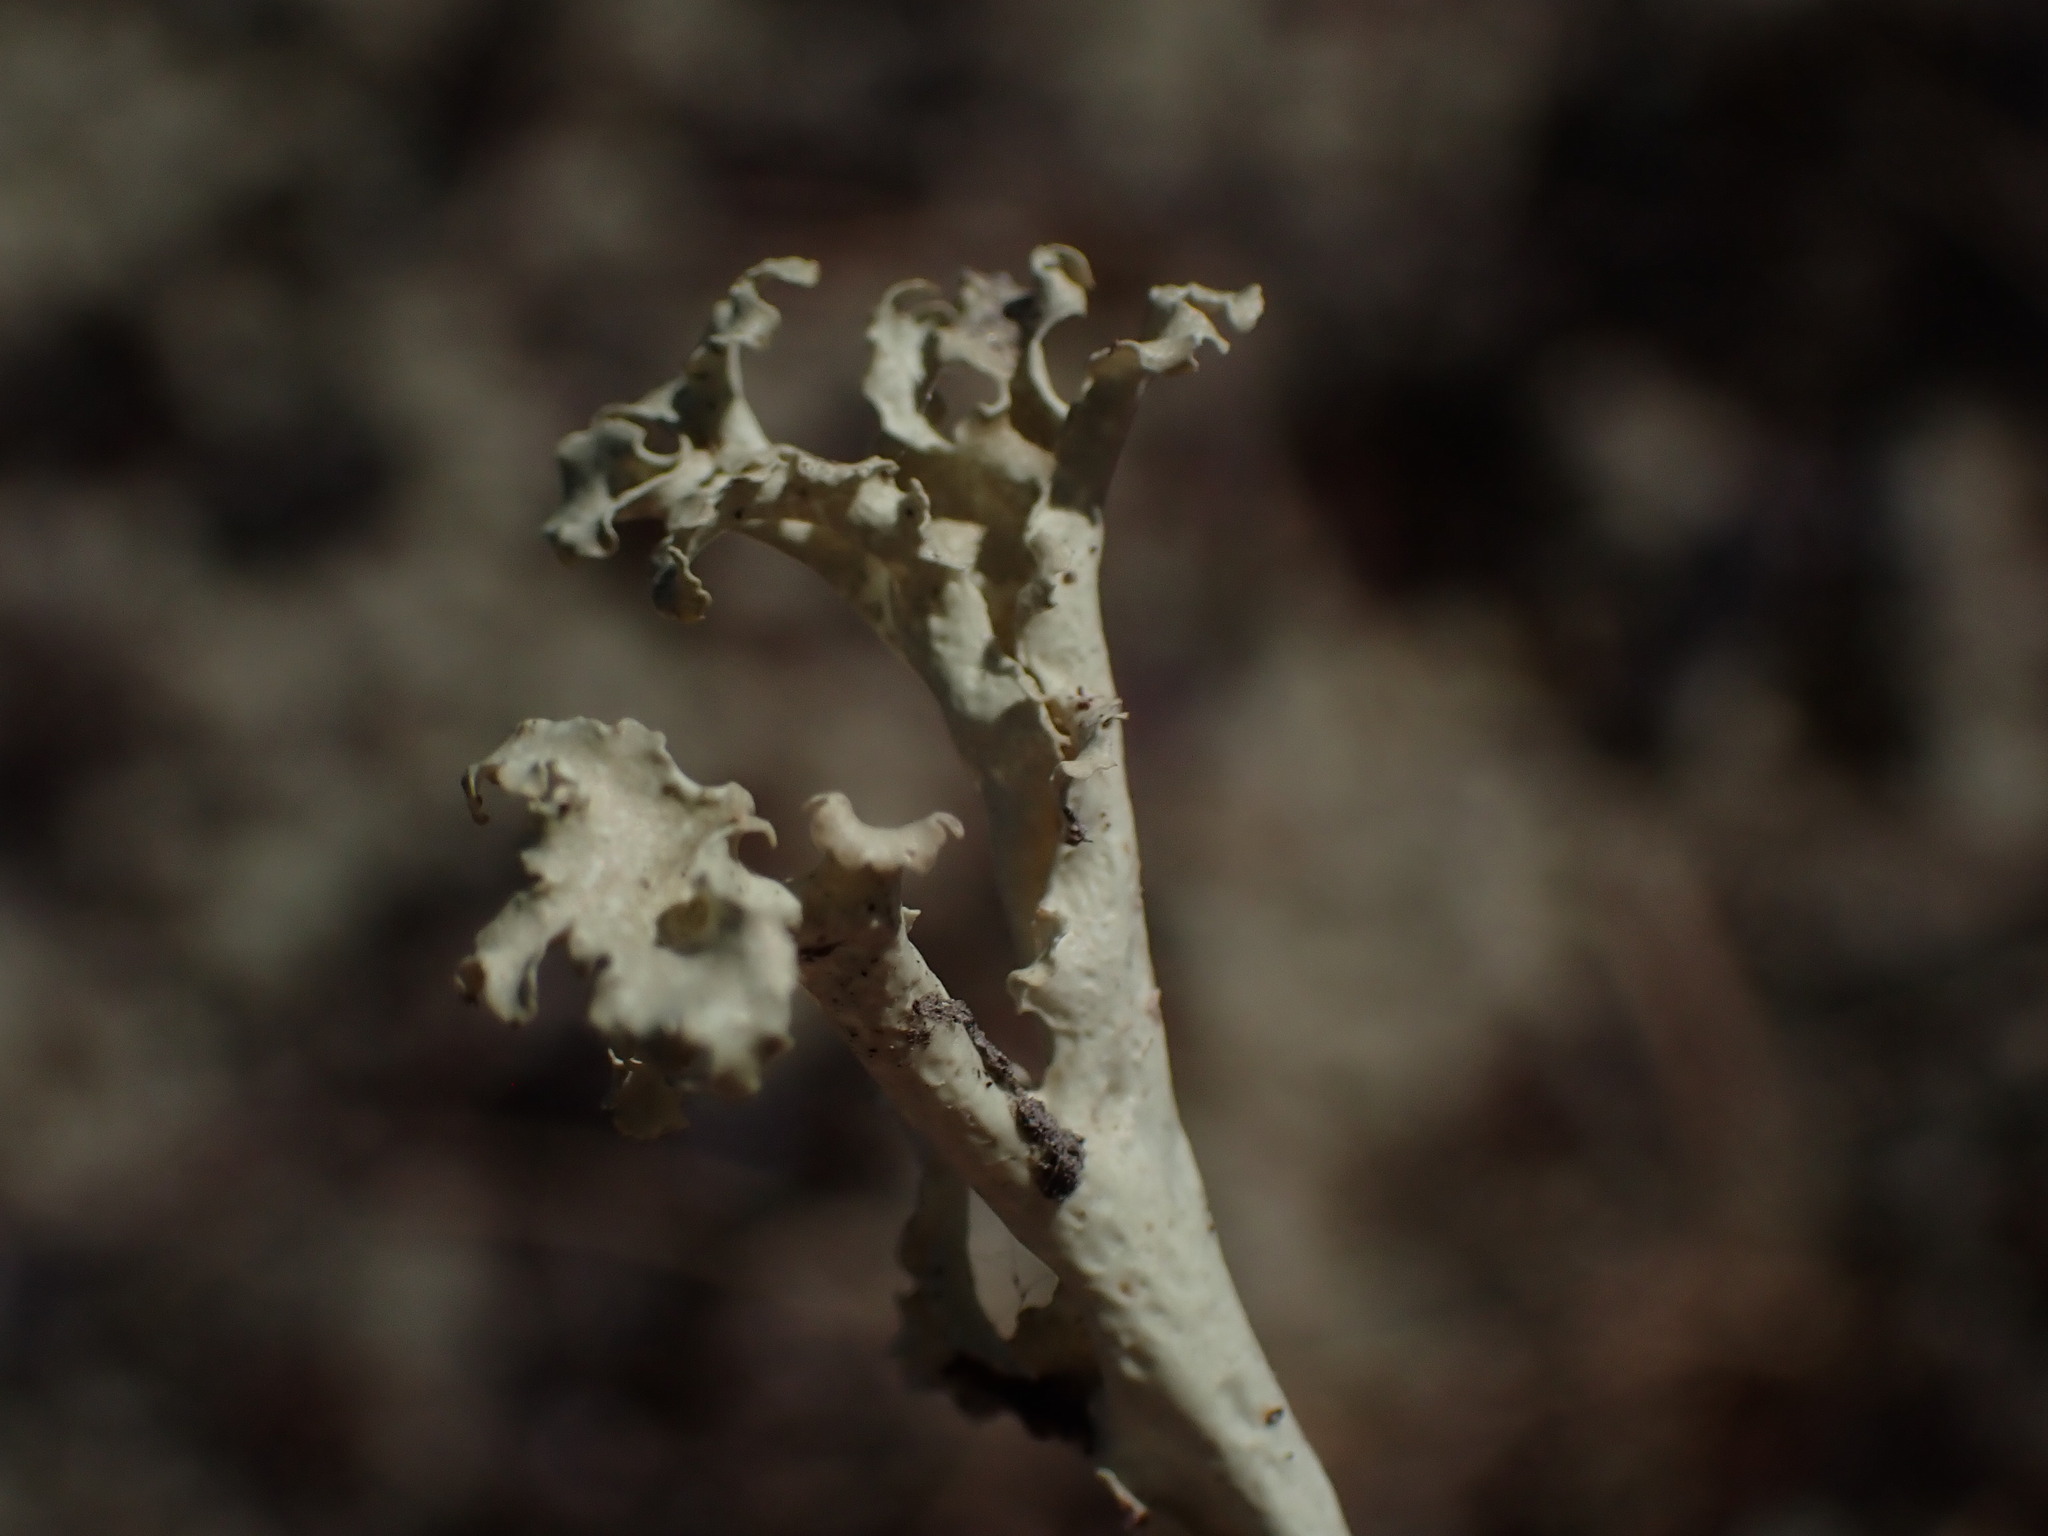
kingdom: Fungi
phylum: Ascomycota
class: Lecanoromycetes
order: Lecanorales
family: Parmeliaceae
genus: Nephromopsis
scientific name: Nephromopsis cucullata
